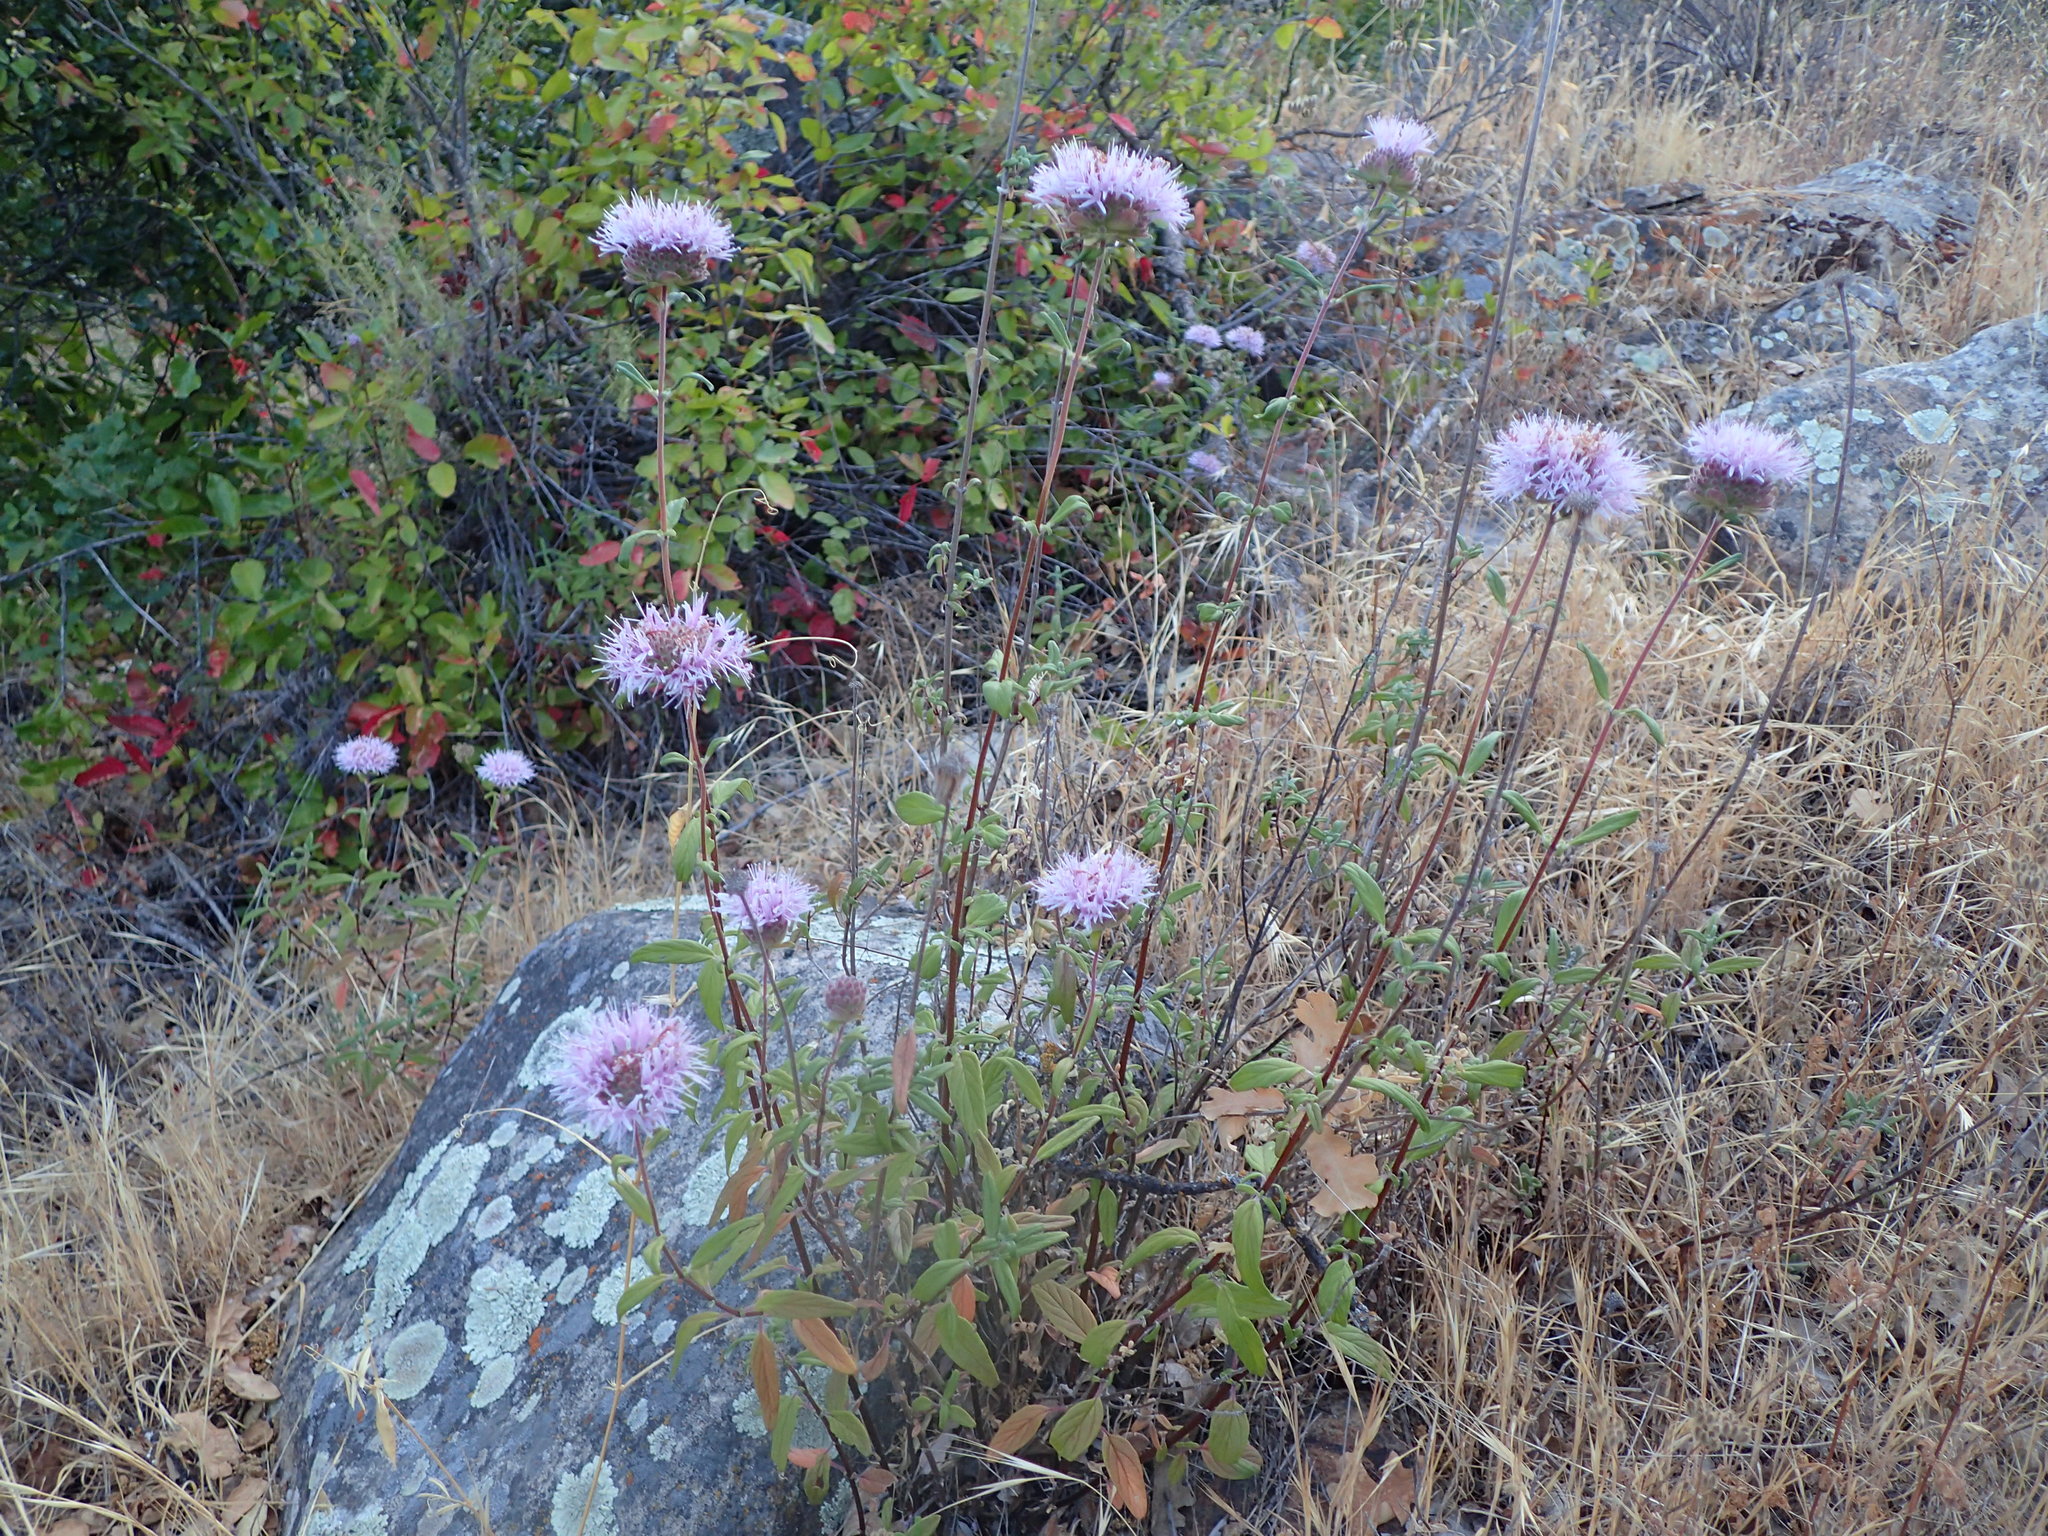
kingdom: Plantae
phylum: Tracheophyta
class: Magnoliopsida
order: Lamiales
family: Lamiaceae
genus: Monardella
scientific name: Monardella hypoleuca
